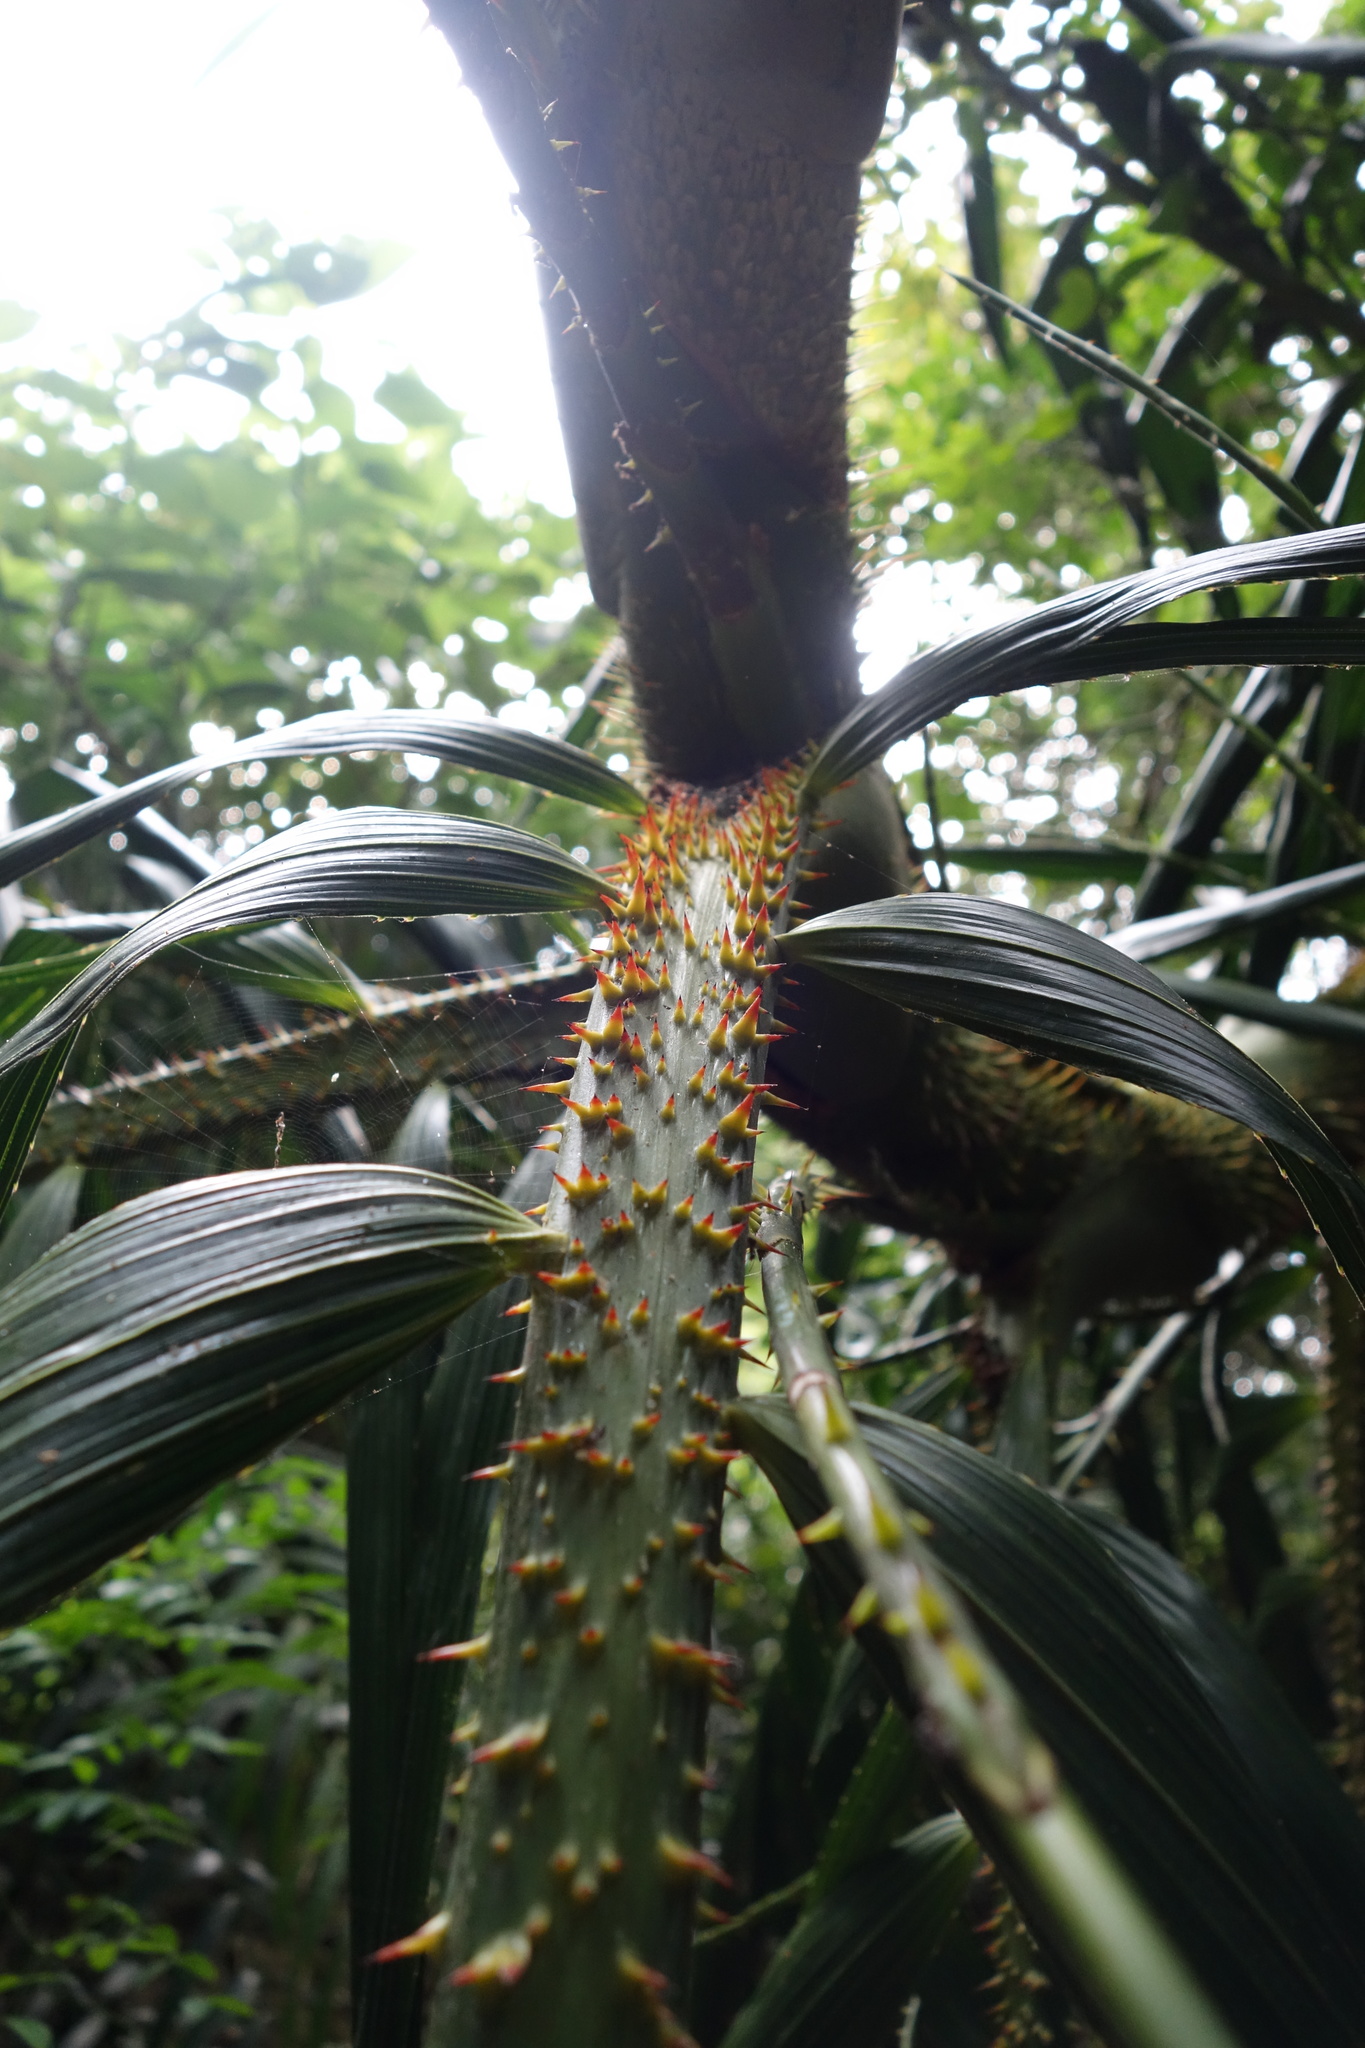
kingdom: Plantae
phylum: Tracheophyta
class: Liliopsida
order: Arecales
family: Arecaceae
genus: Calamus
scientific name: Calamus formosanus
